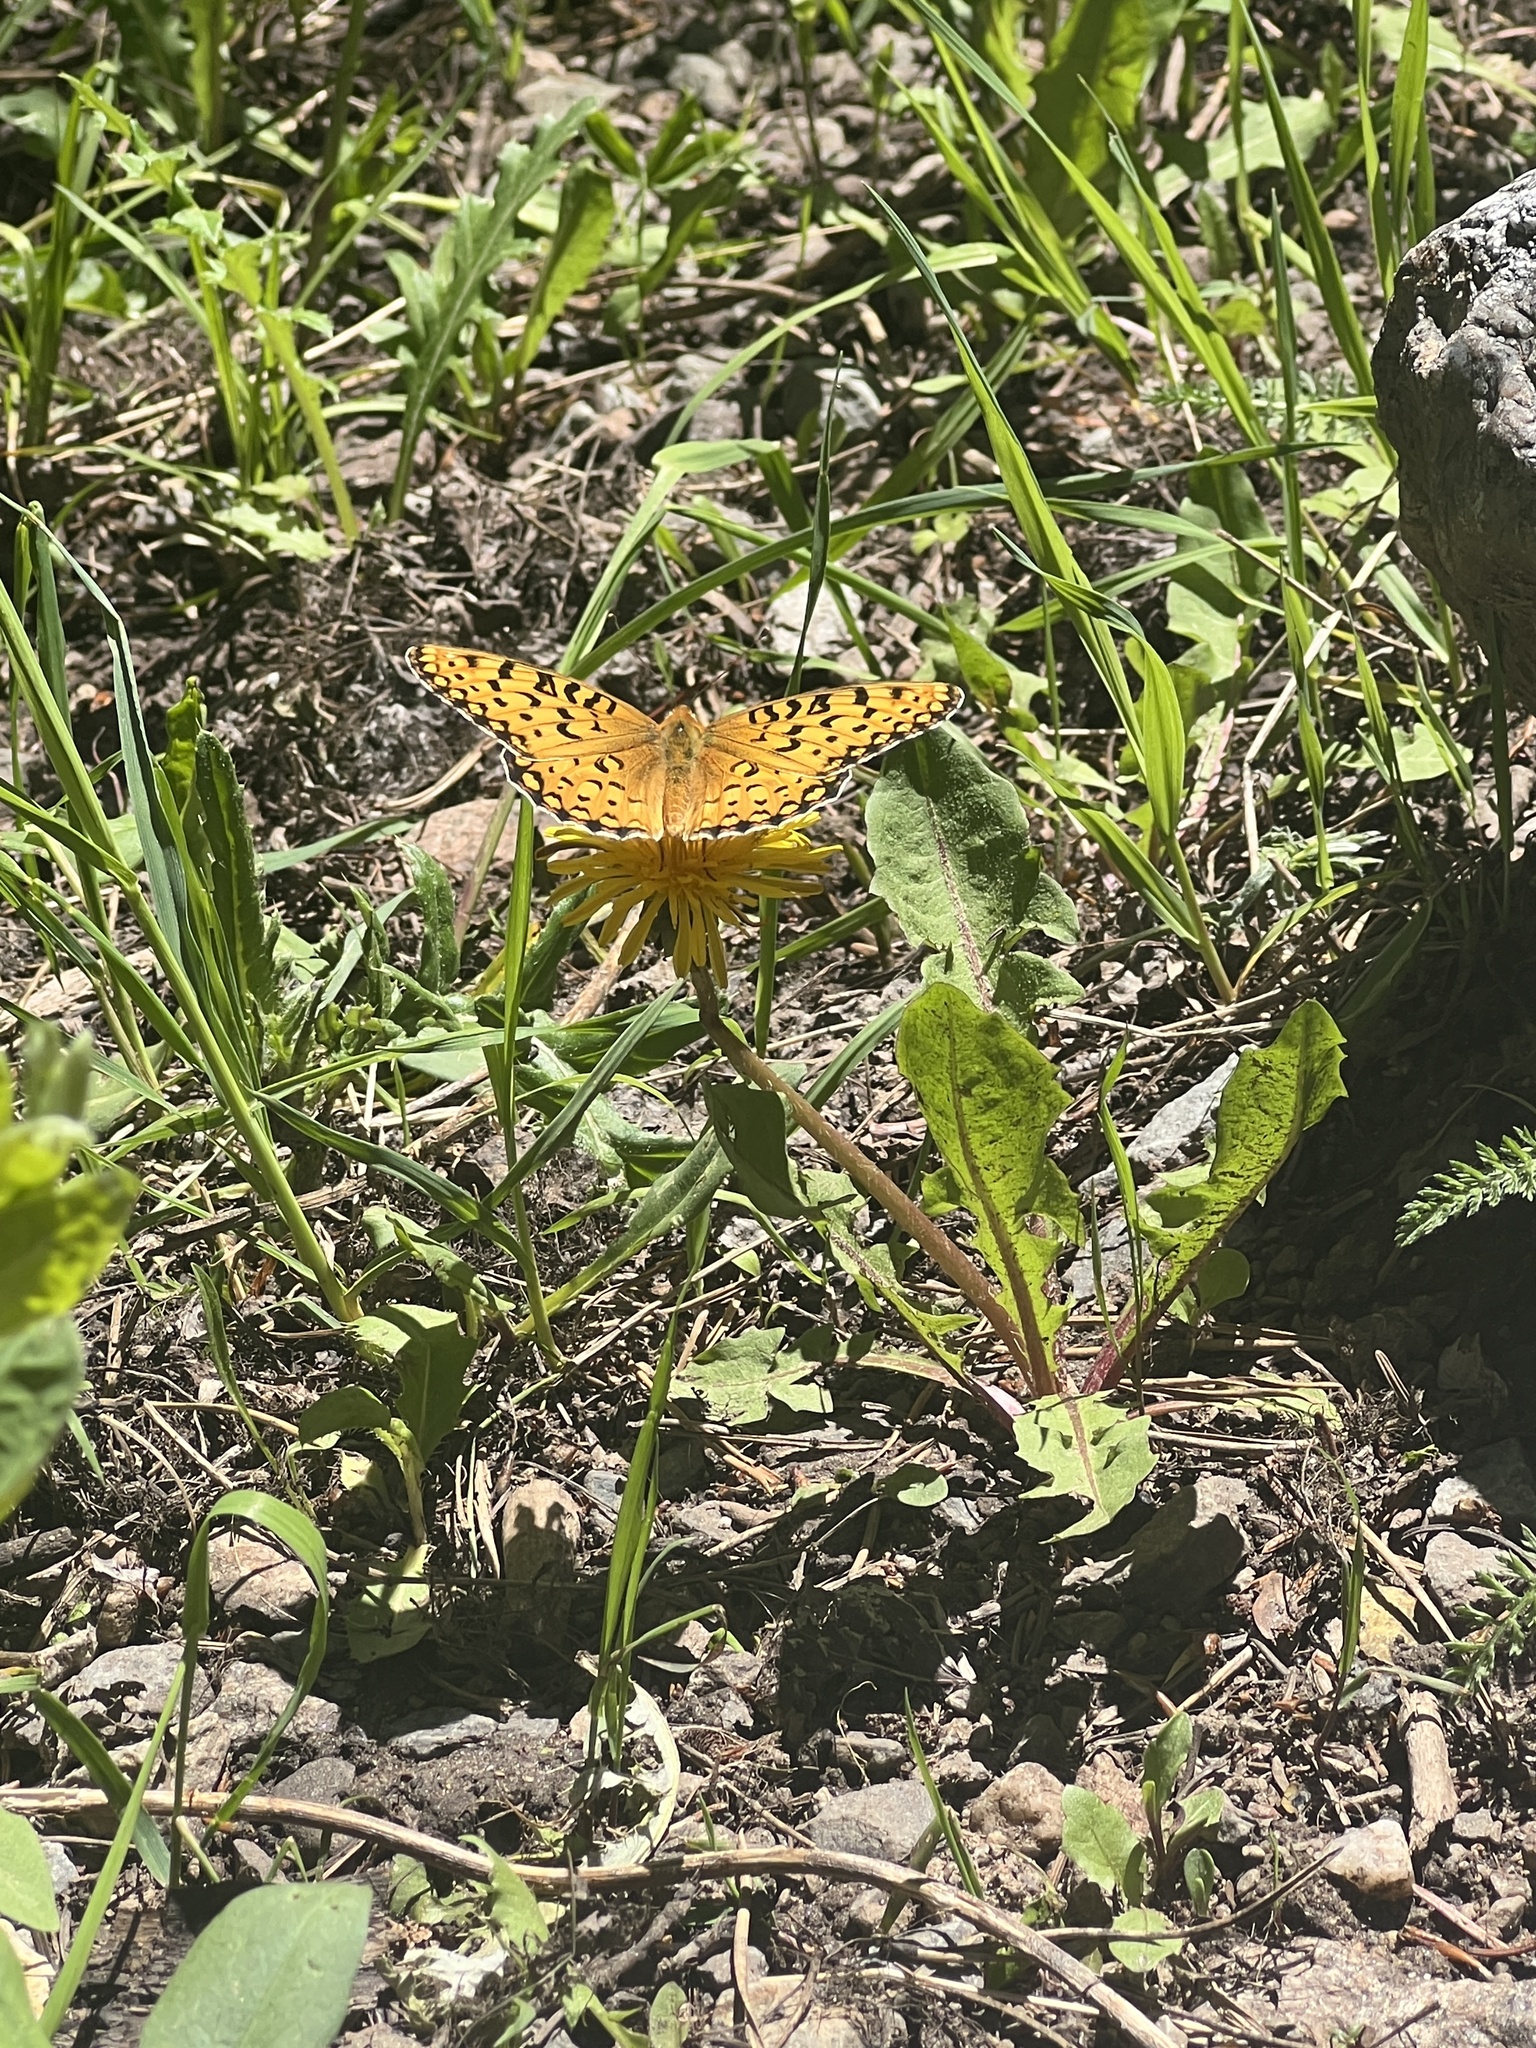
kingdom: Animalia
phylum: Arthropoda
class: Insecta
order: Lepidoptera
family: Nymphalidae
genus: Speyeria
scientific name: Speyeria edwardsii
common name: Edwards' fritillary
